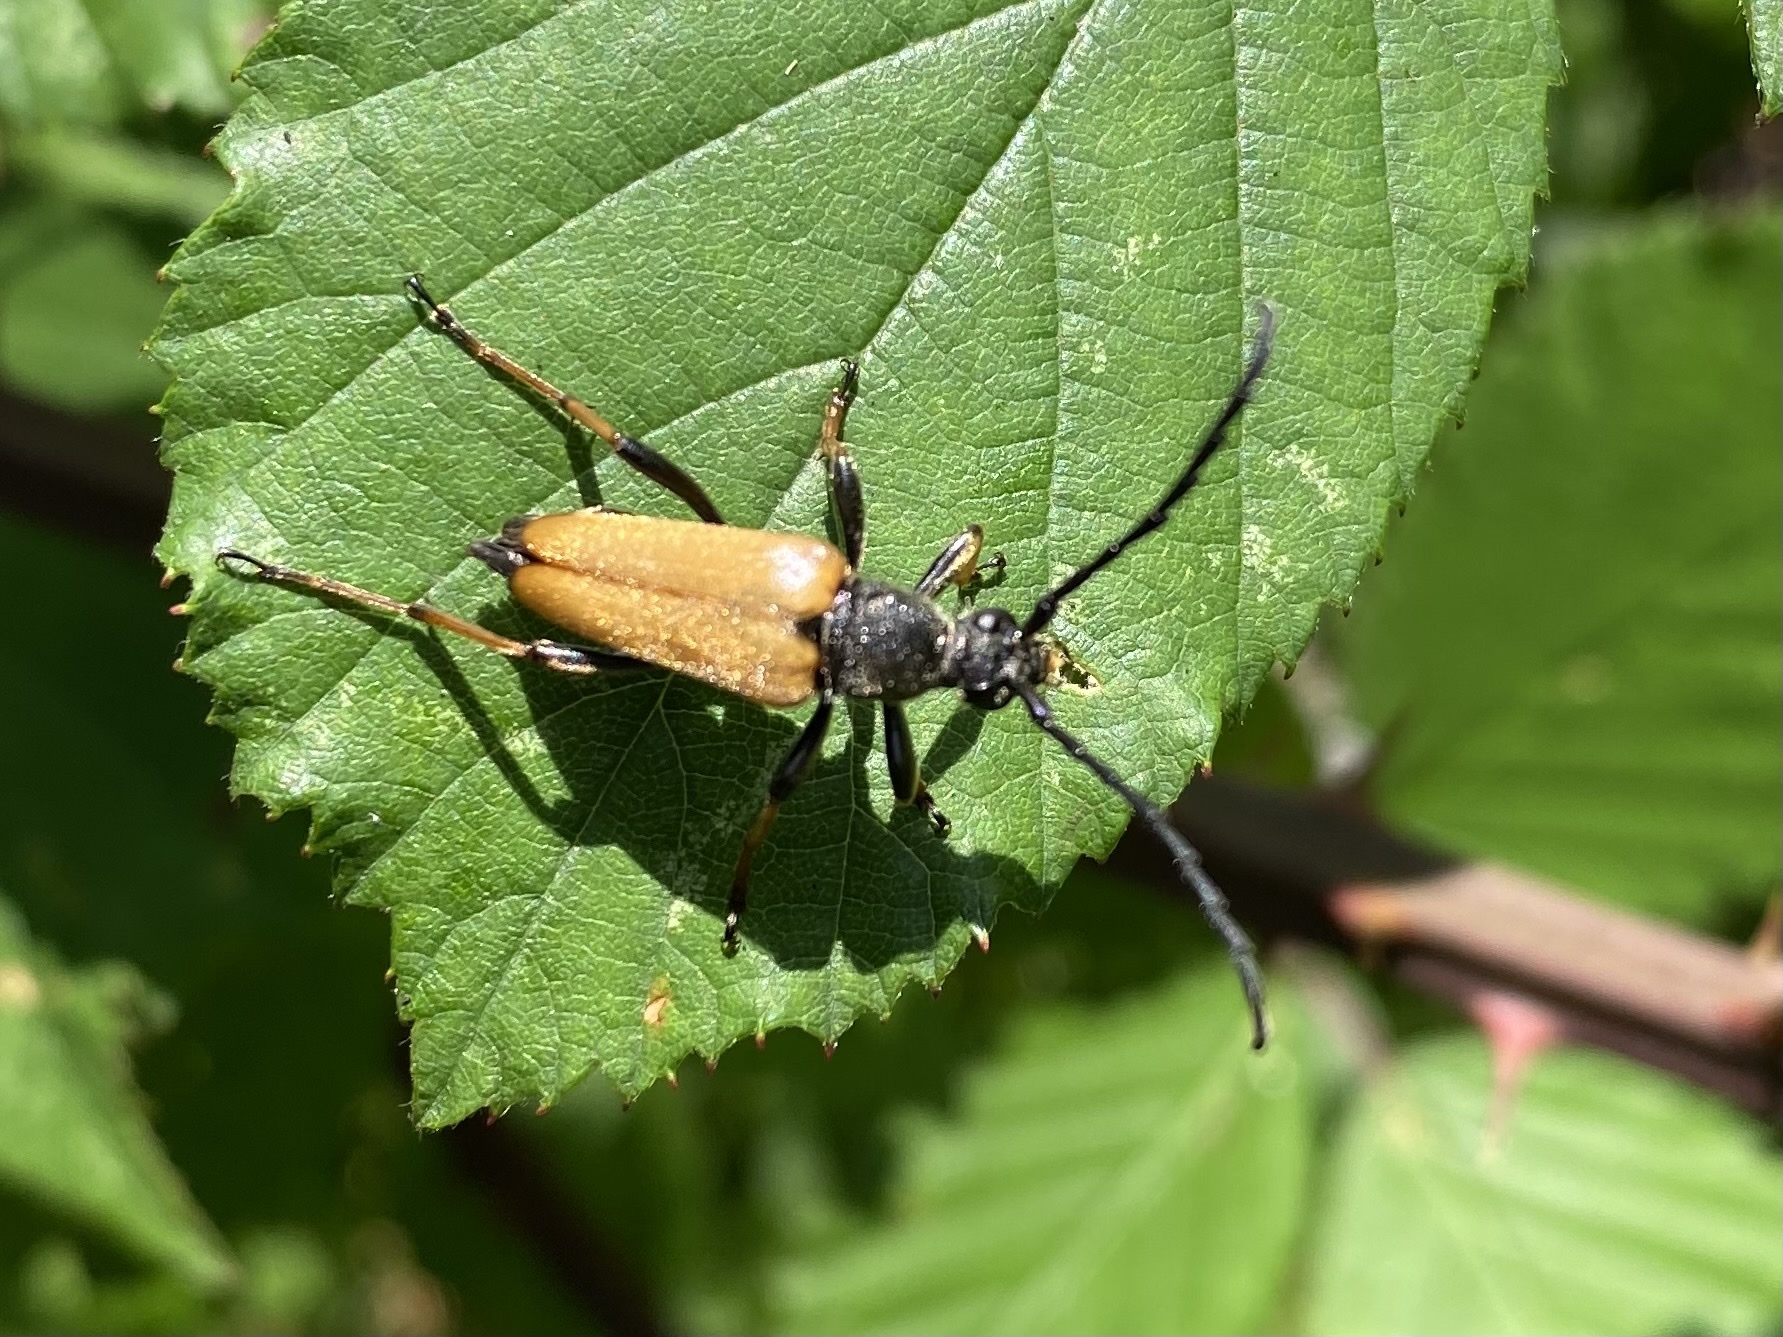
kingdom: Animalia
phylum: Arthropoda
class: Insecta
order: Coleoptera
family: Cerambycidae
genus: Stictoleptura
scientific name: Stictoleptura rubra
